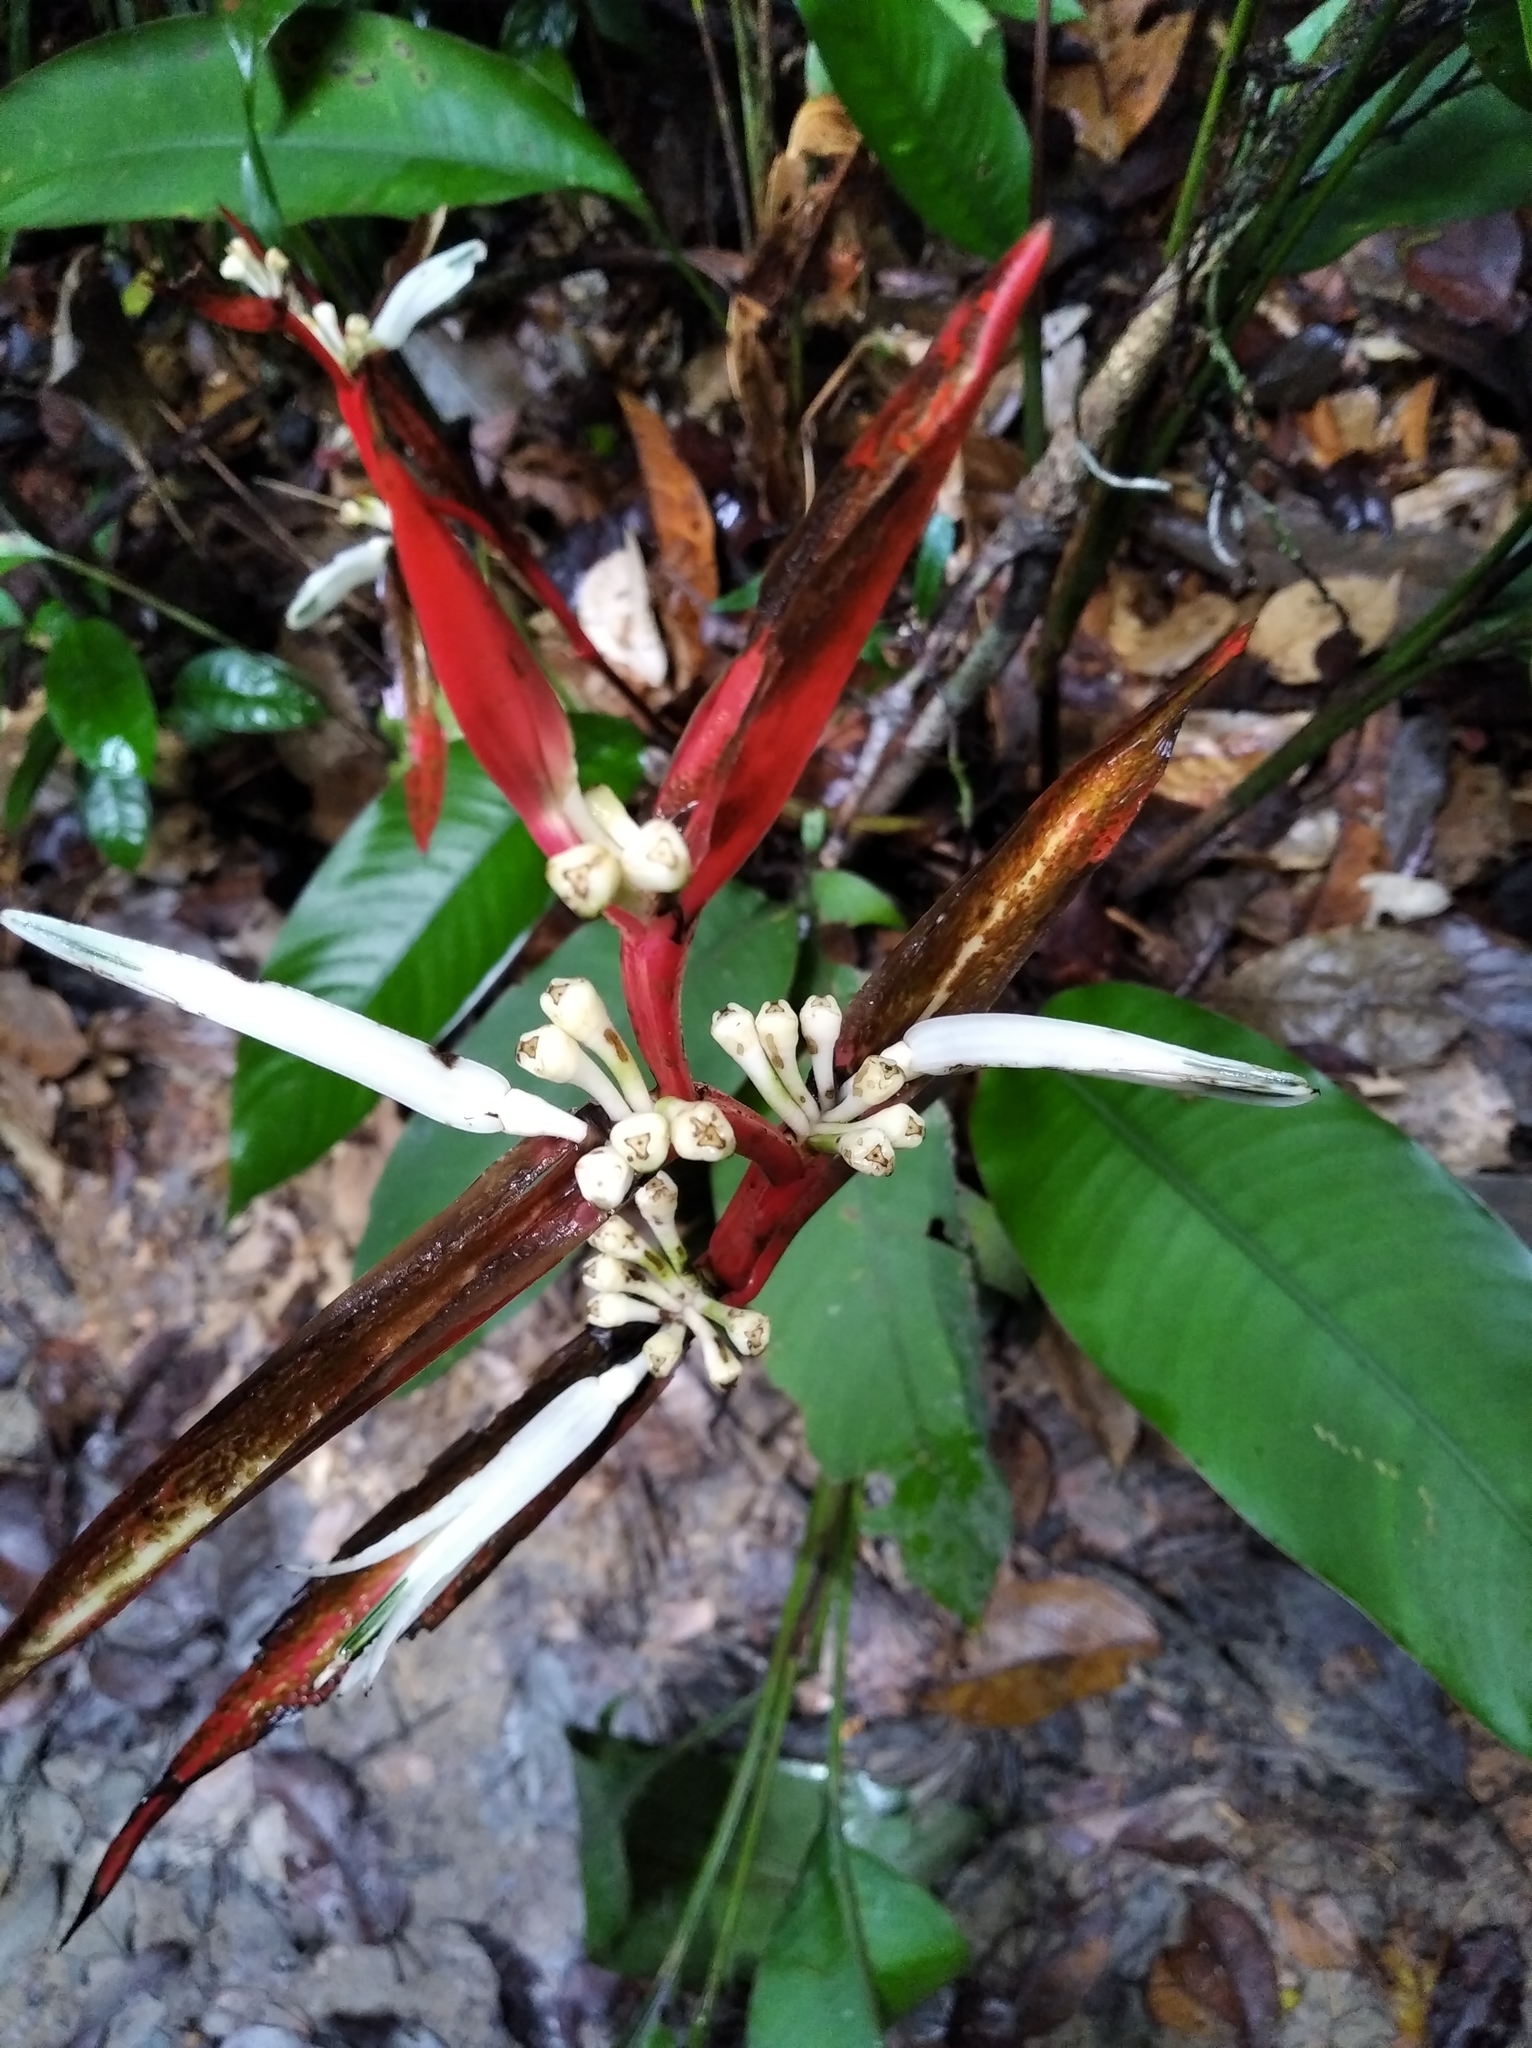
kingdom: Plantae
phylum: Tracheophyta
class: Liliopsida
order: Zingiberales
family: Heliconiaceae
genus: Heliconia
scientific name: Heliconia acuminata
